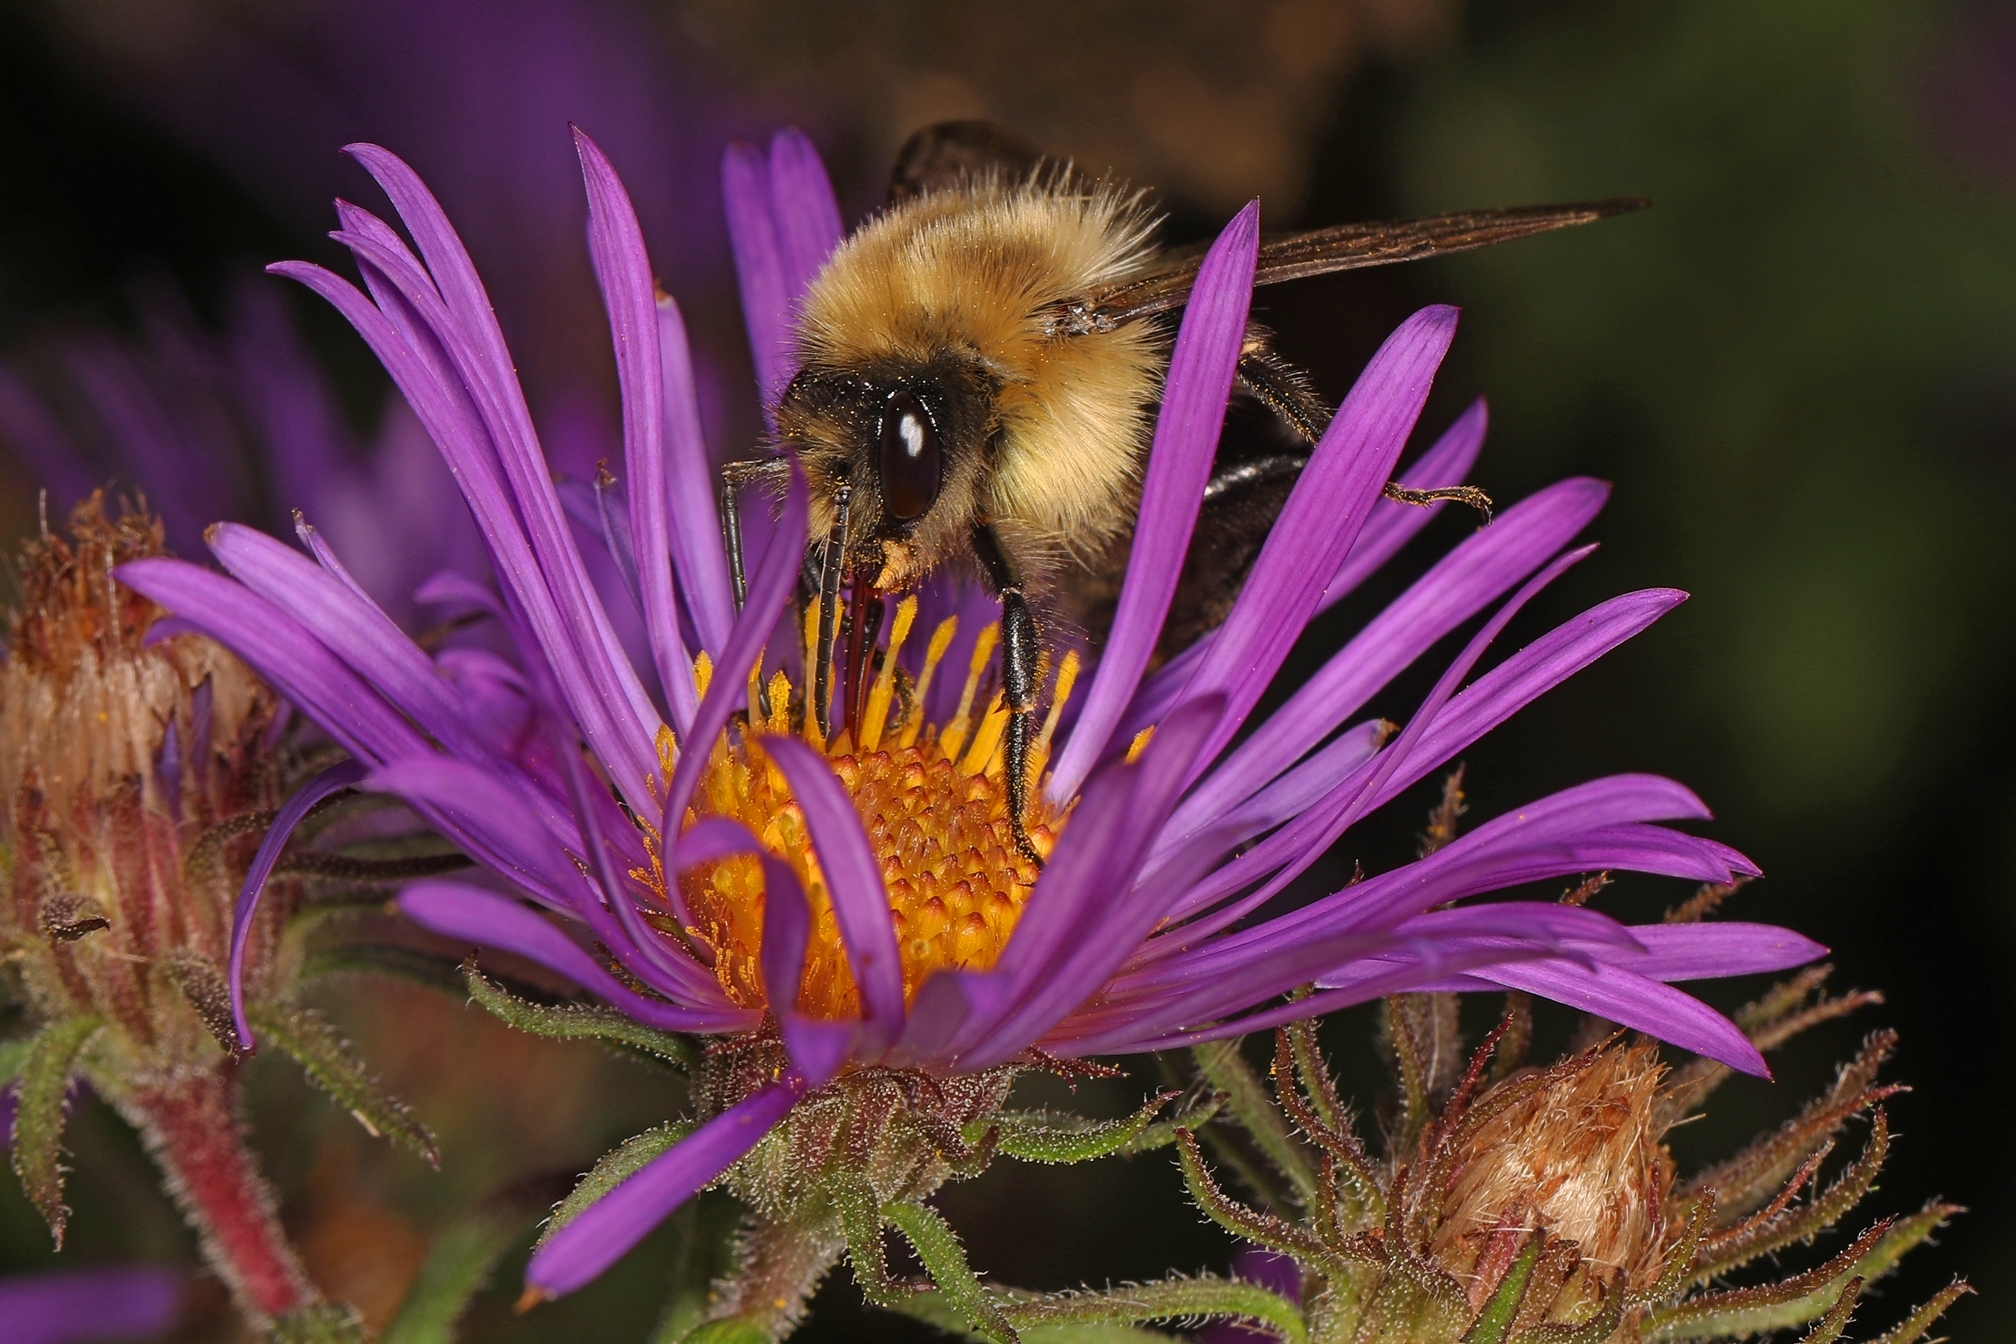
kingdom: Animalia
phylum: Arthropoda
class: Insecta
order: Hymenoptera
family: Apidae
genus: Bombus
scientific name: Bombus impatiens
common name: Common eastern bumble bee
